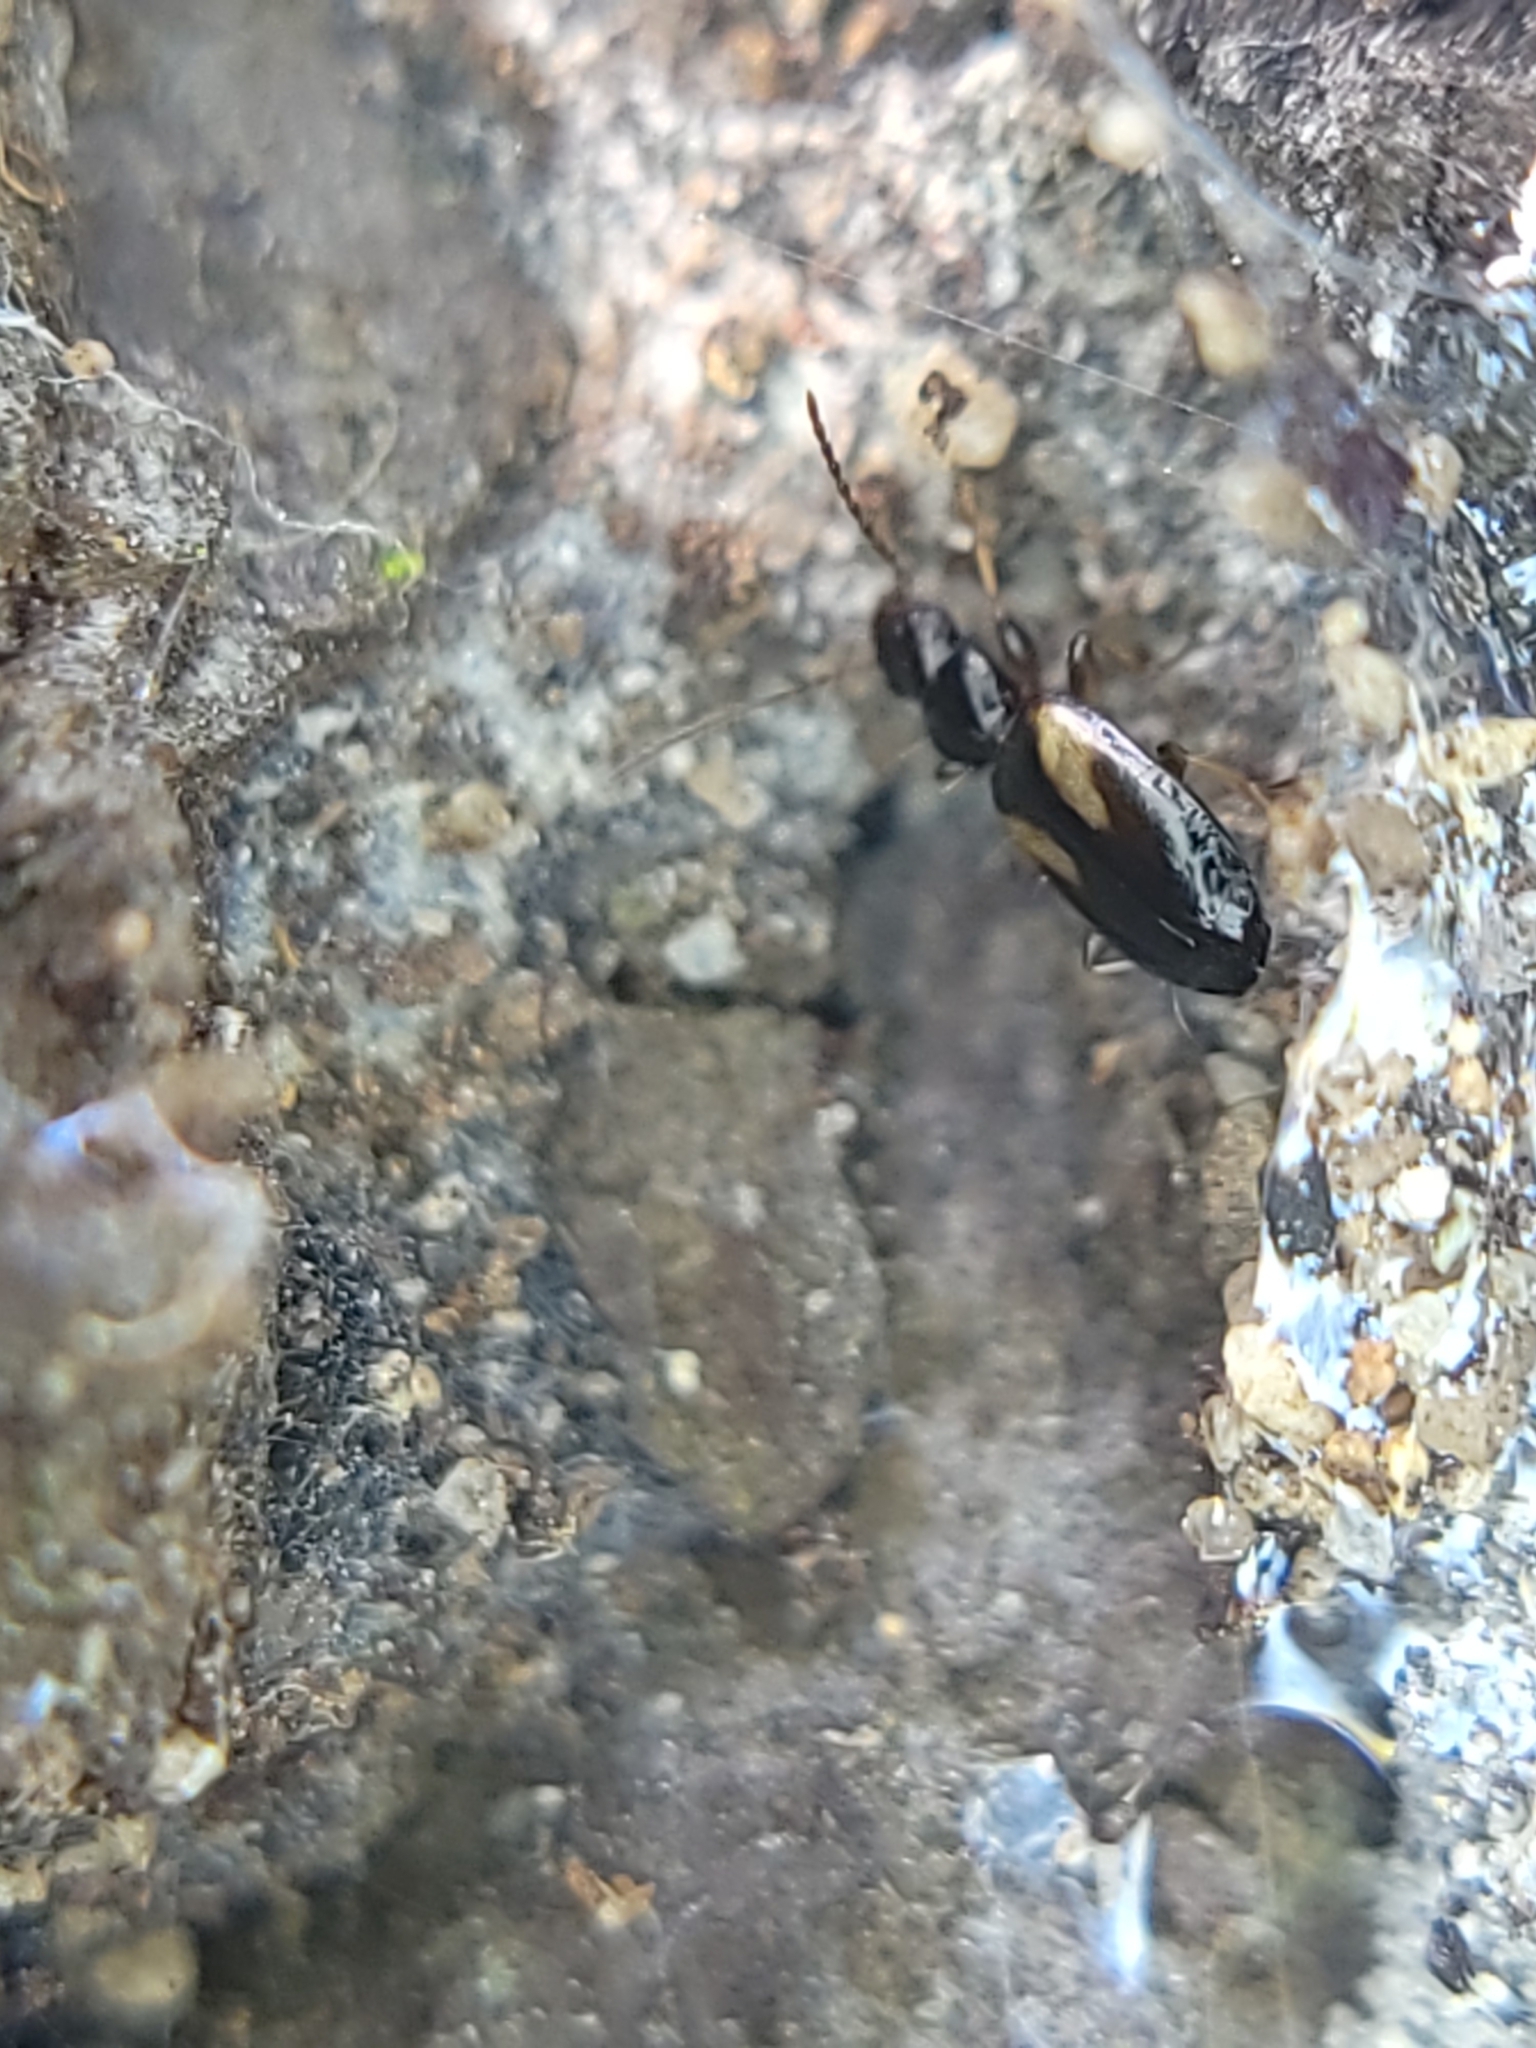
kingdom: Animalia
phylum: Arthropoda
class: Insecta
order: Coleoptera
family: Carabidae
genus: Axinopalpus
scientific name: Axinopalpus biplagiatus
